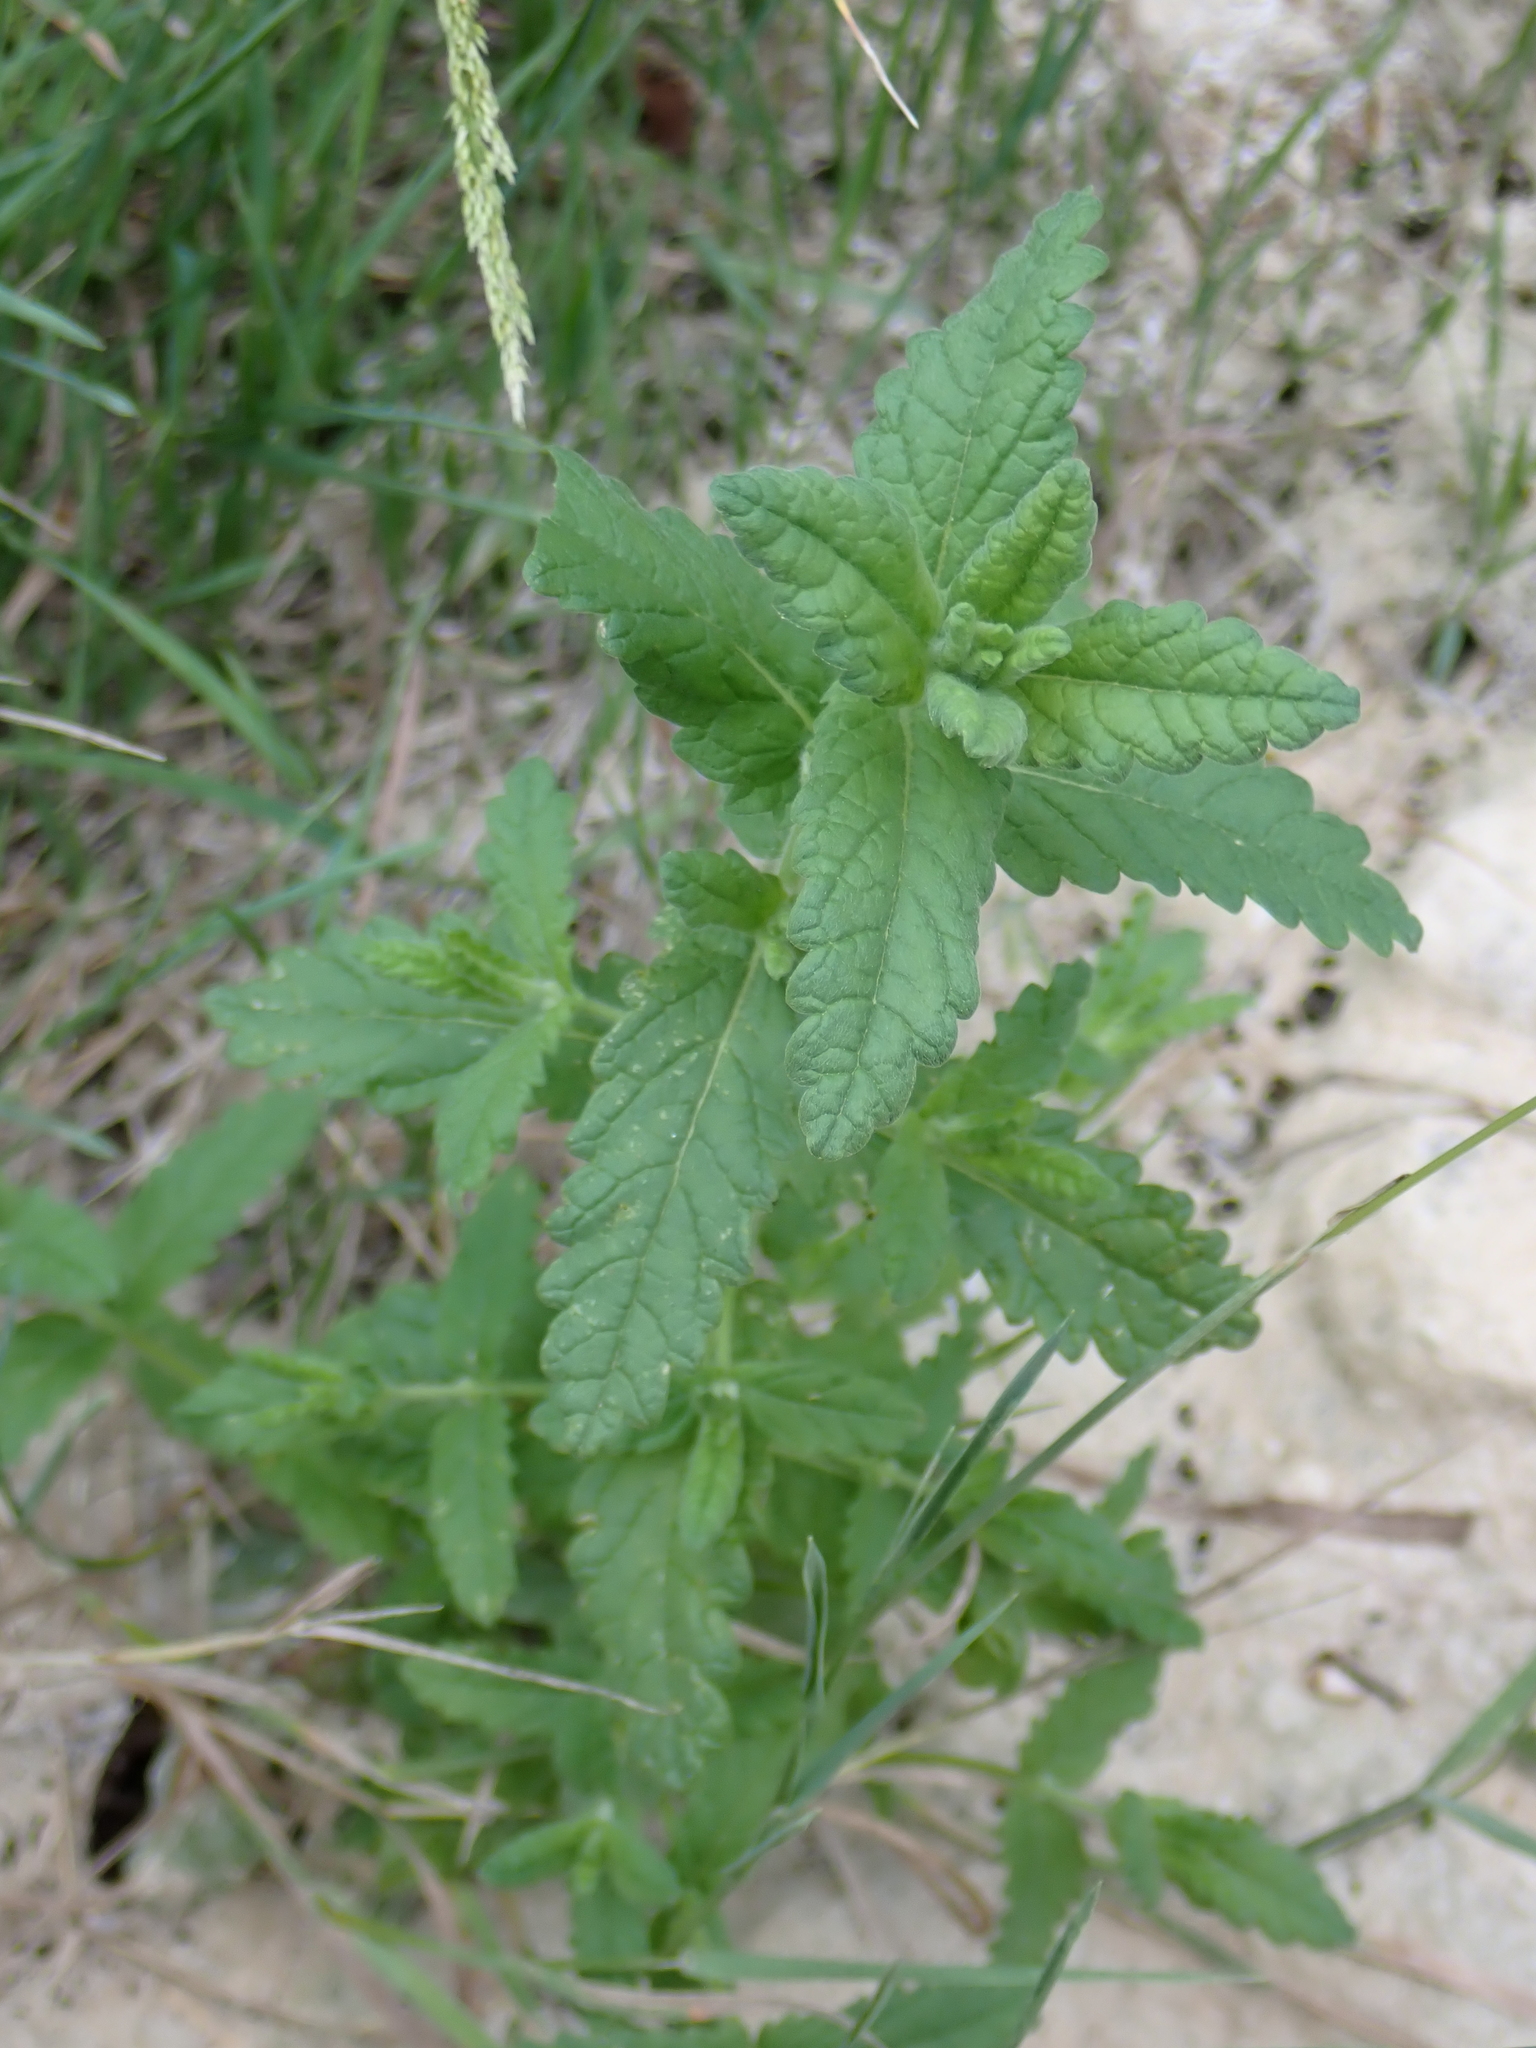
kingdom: Plantae
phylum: Tracheophyta
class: Magnoliopsida
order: Lamiales
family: Lamiaceae
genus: Teucrium
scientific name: Teucrium scordium
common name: Water germander
